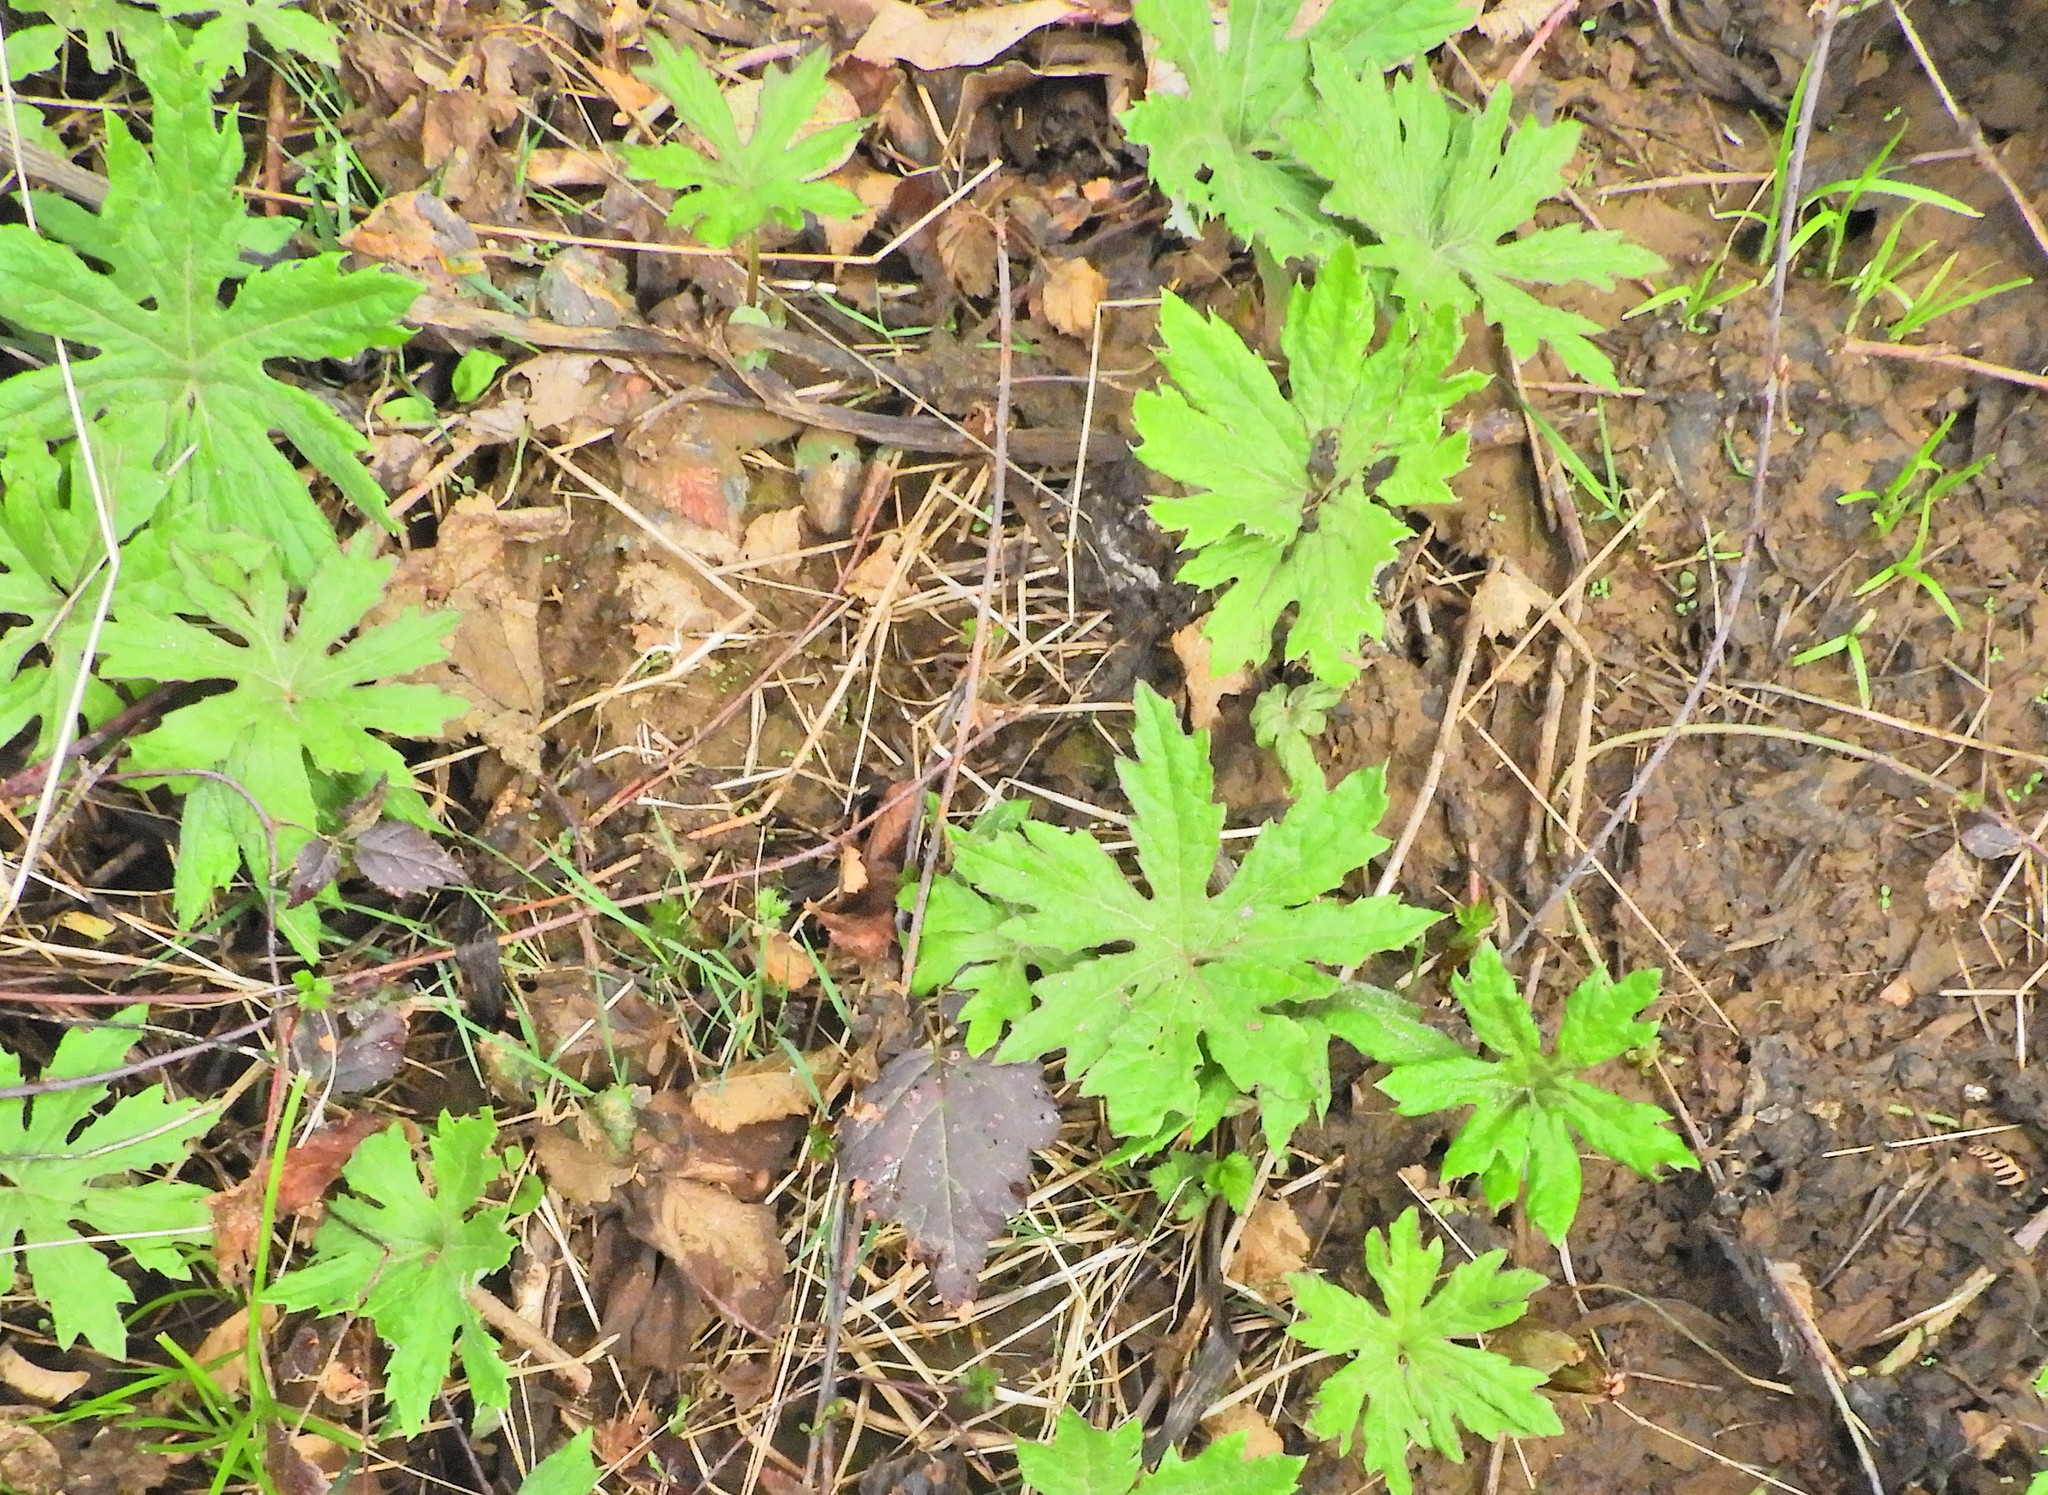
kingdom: Plantae
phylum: Tracheophyta
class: Magnoliopsida
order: Asterales
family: Asteraceae
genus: Petasites
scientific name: Petasites frigidus
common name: Arctic butterbur
